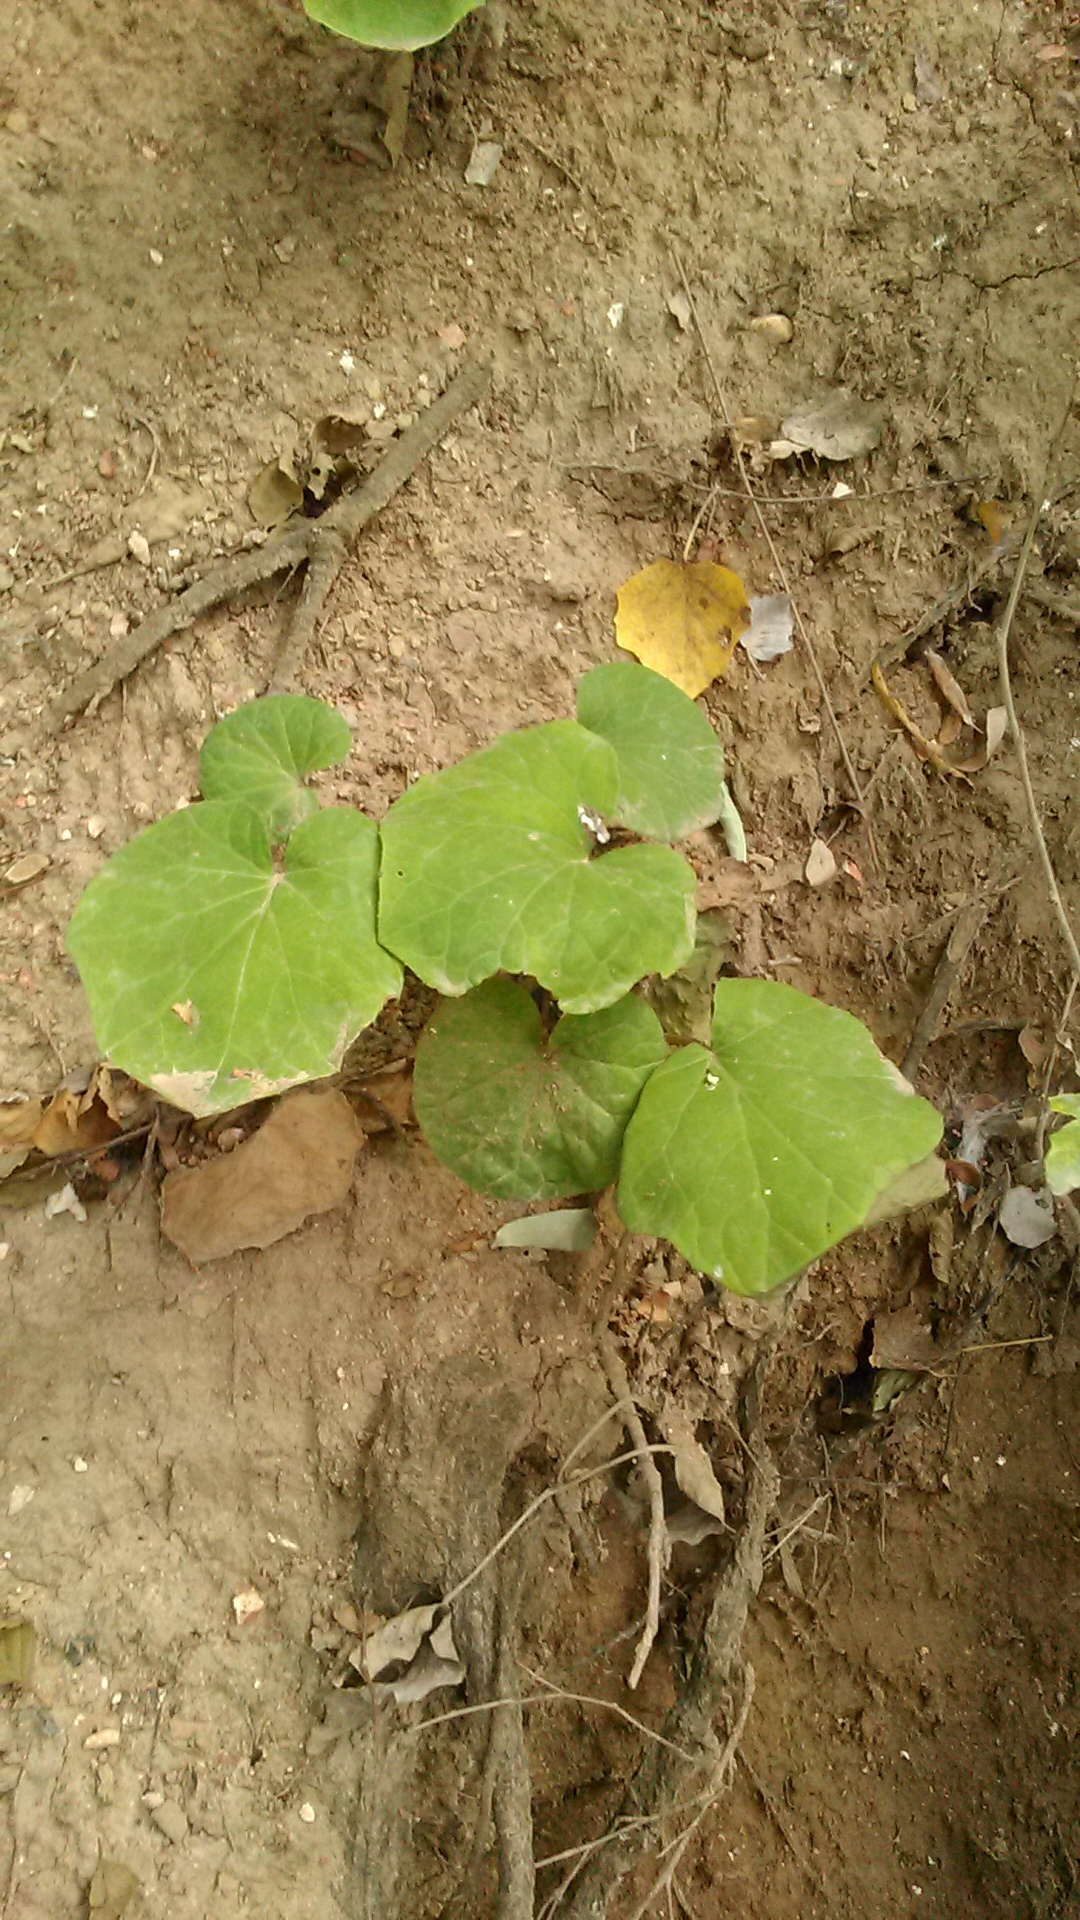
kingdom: Plantae
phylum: Tracheophyta
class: Magnoliopsida
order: Asterales
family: Asteraceae
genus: Tussilago
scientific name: Tussilago farfara
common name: Coltsfoot
